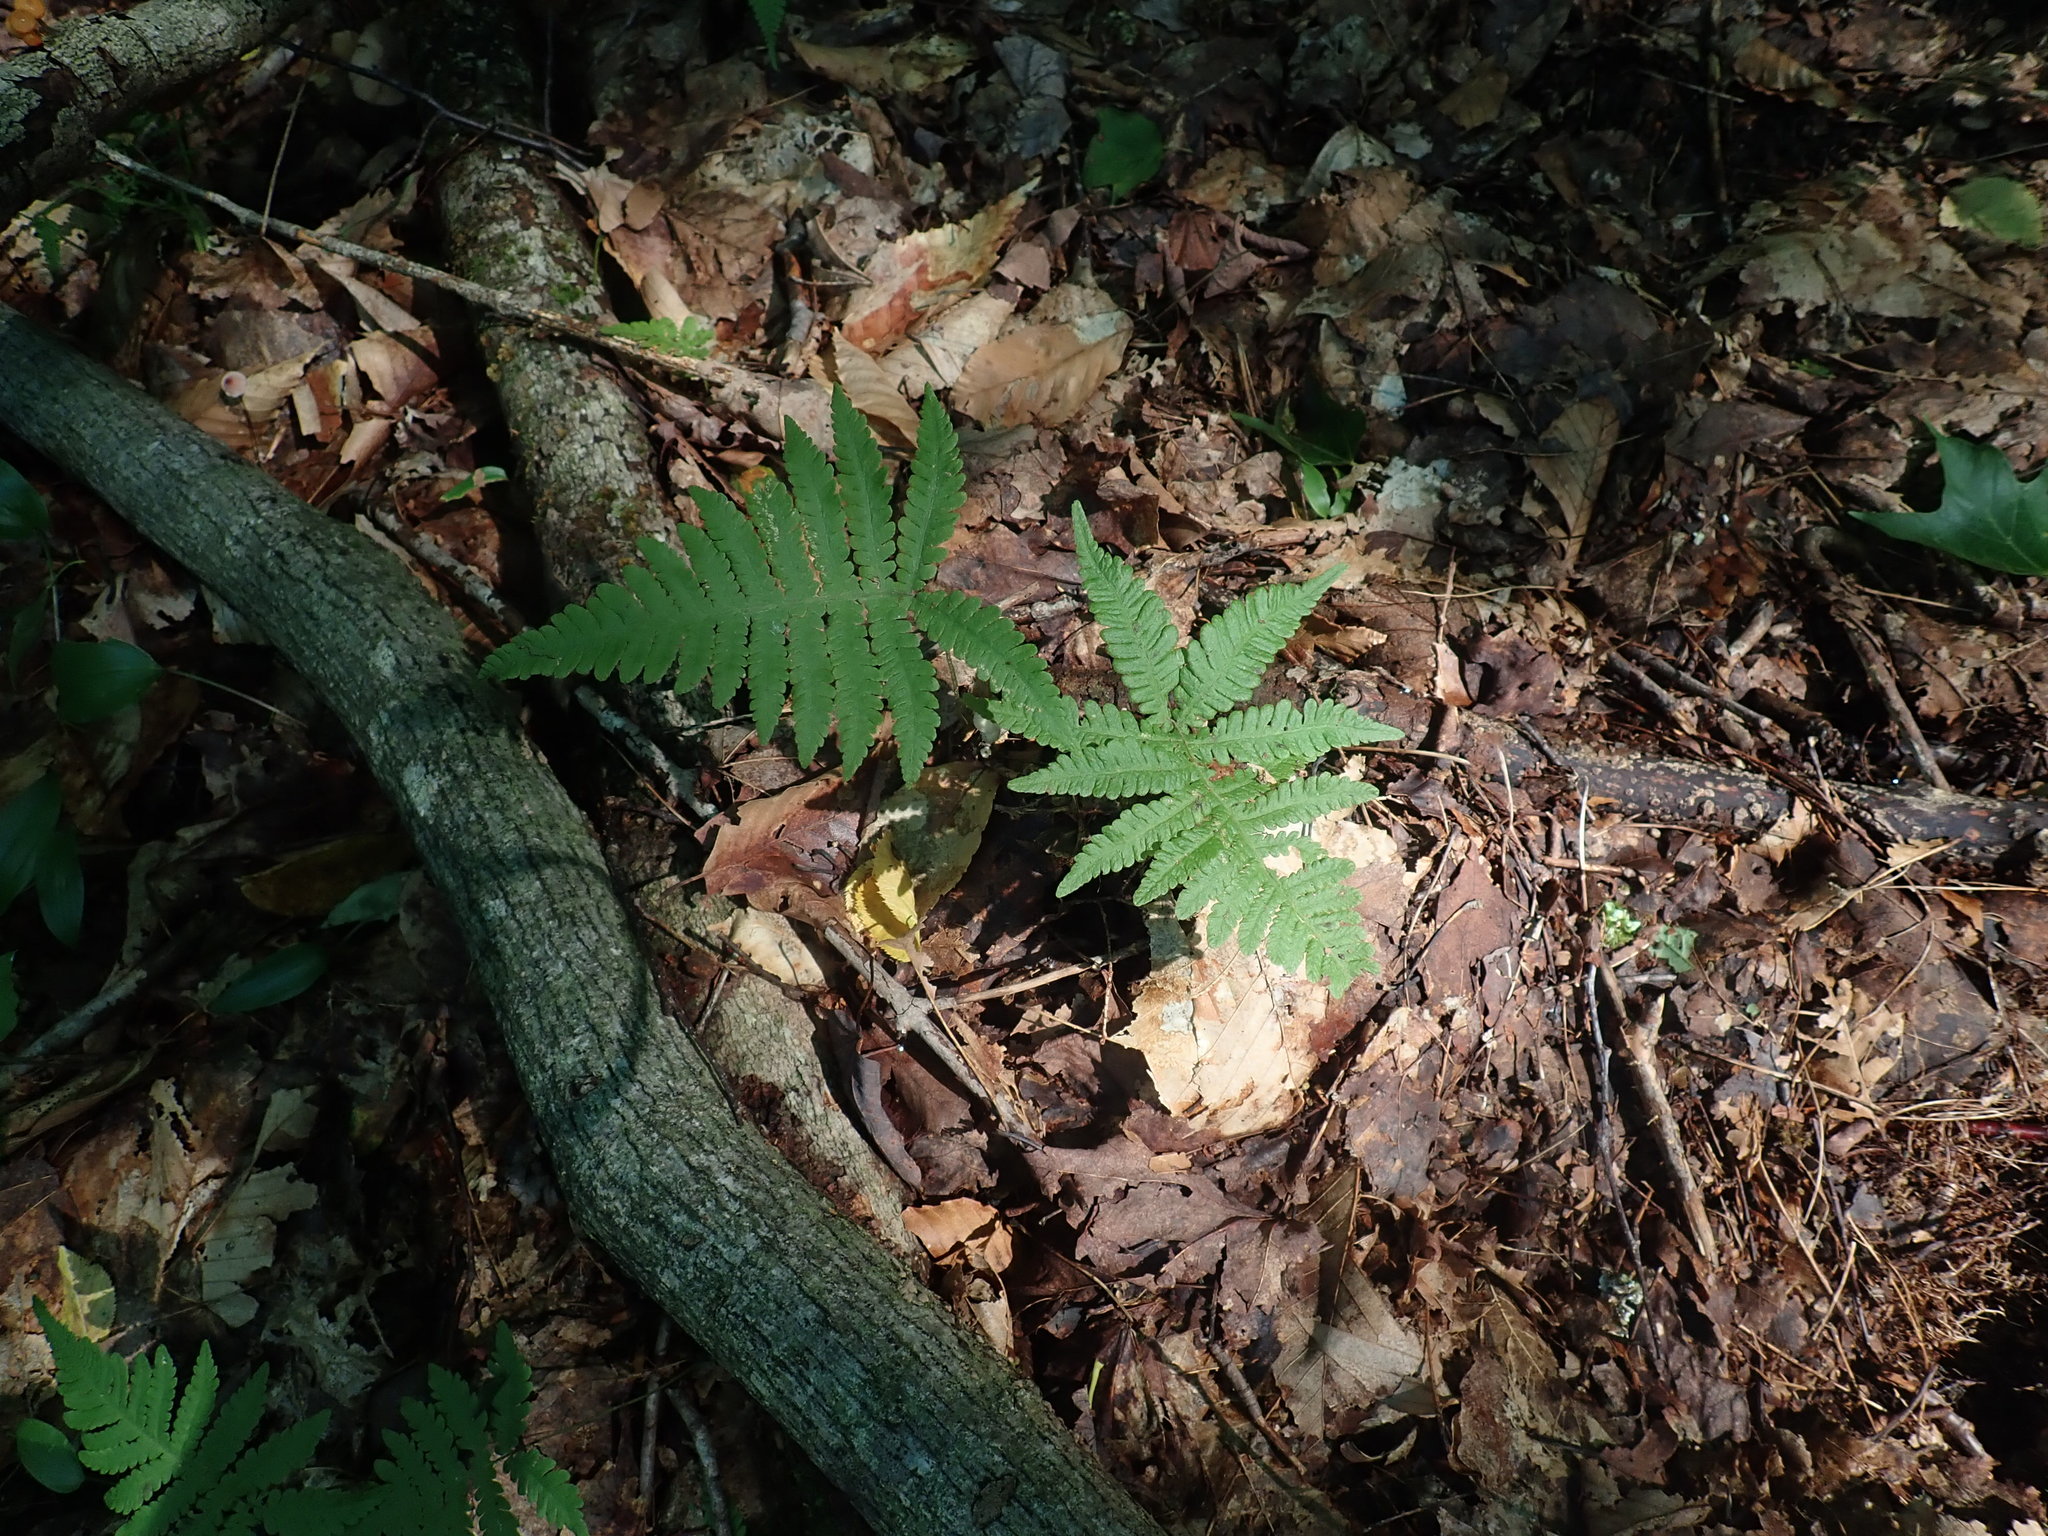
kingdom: Plantae
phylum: Tracheophyta
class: Polypodiopsida
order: Polypodiales
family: Thelypteridaceae
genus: Phegopteris
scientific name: Phegopteris connectilis
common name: Beech fern
